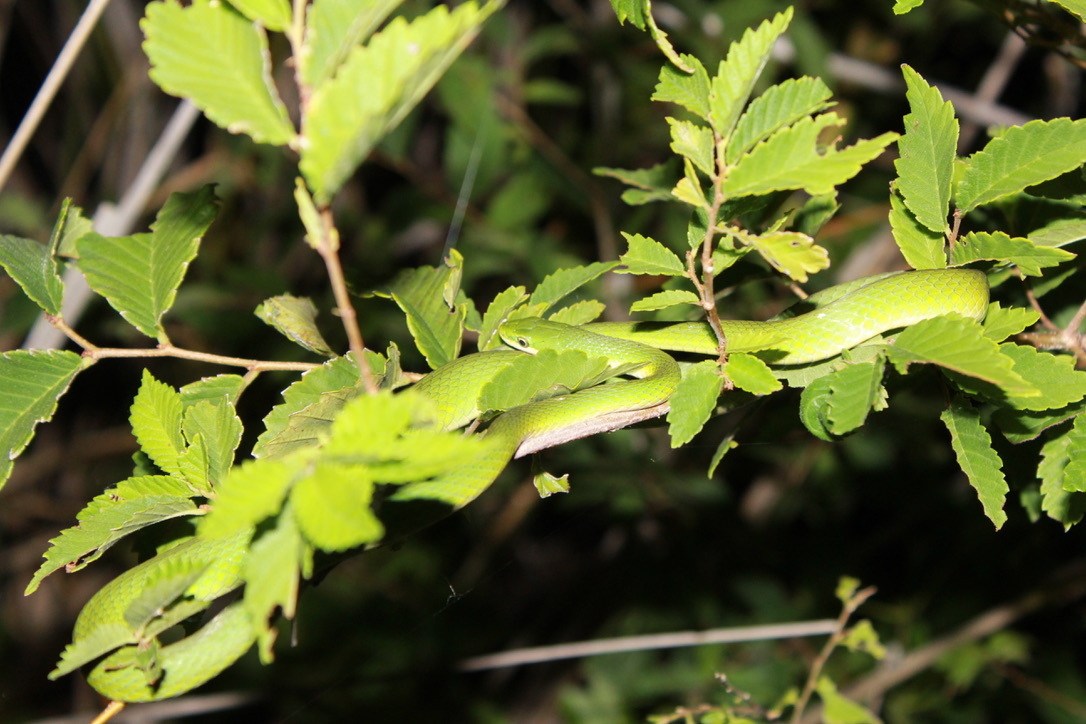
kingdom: Animalia
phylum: Chordata
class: Squamata
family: Colubridae
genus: Opheodrys
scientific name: Opheodrys aestivus
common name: Rough greensnake
